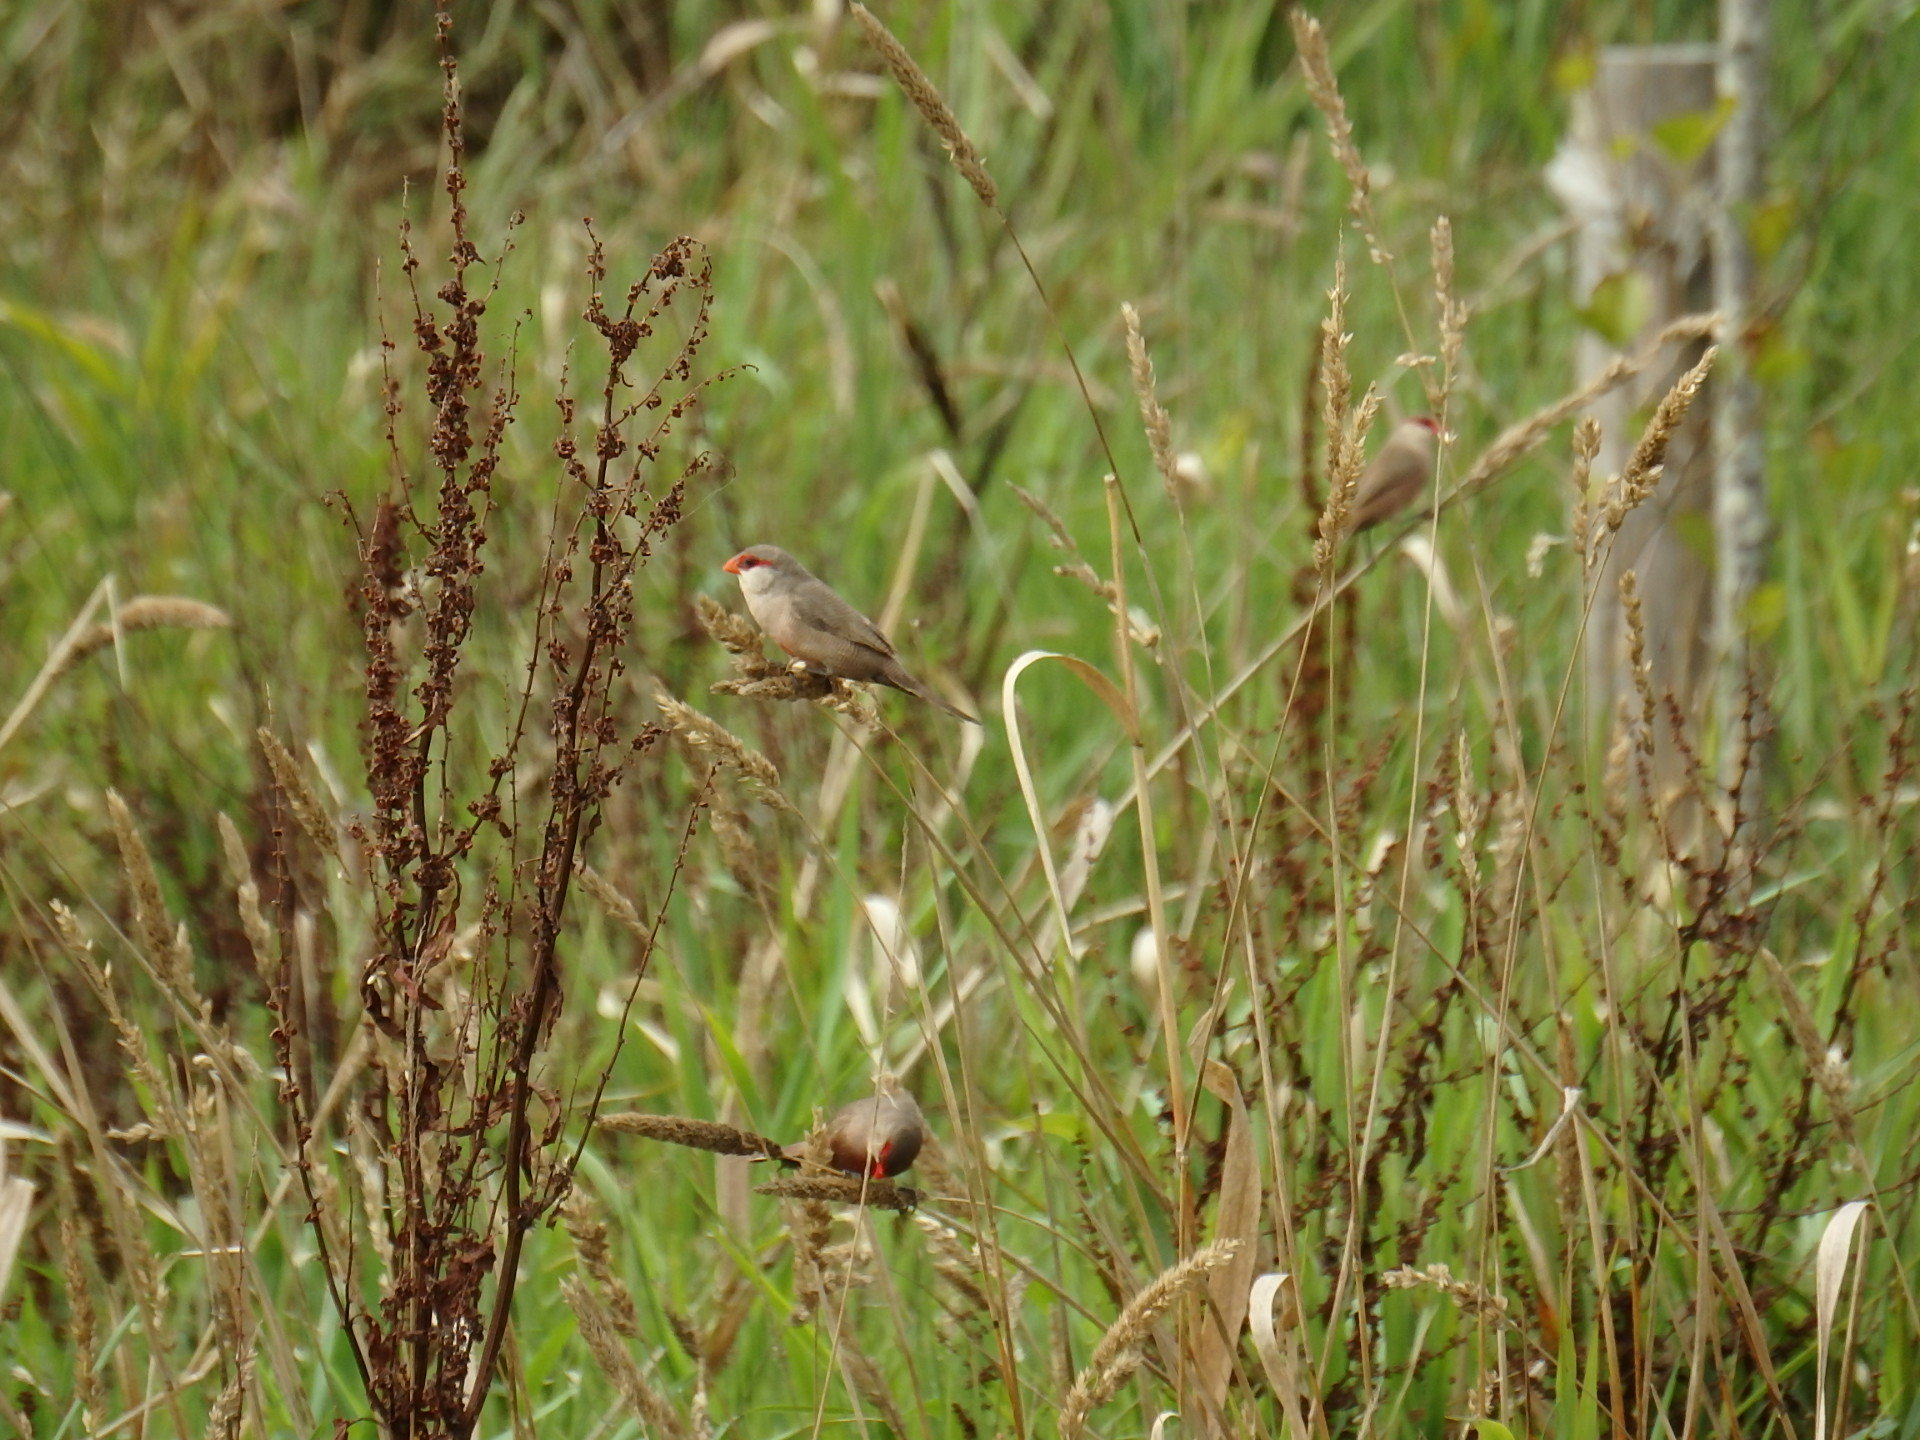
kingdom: Animalia
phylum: Chordata
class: Aves
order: Passeriformes
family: Estrildidae
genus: Estrilda
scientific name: Estrilda astrild
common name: Common waxbill
